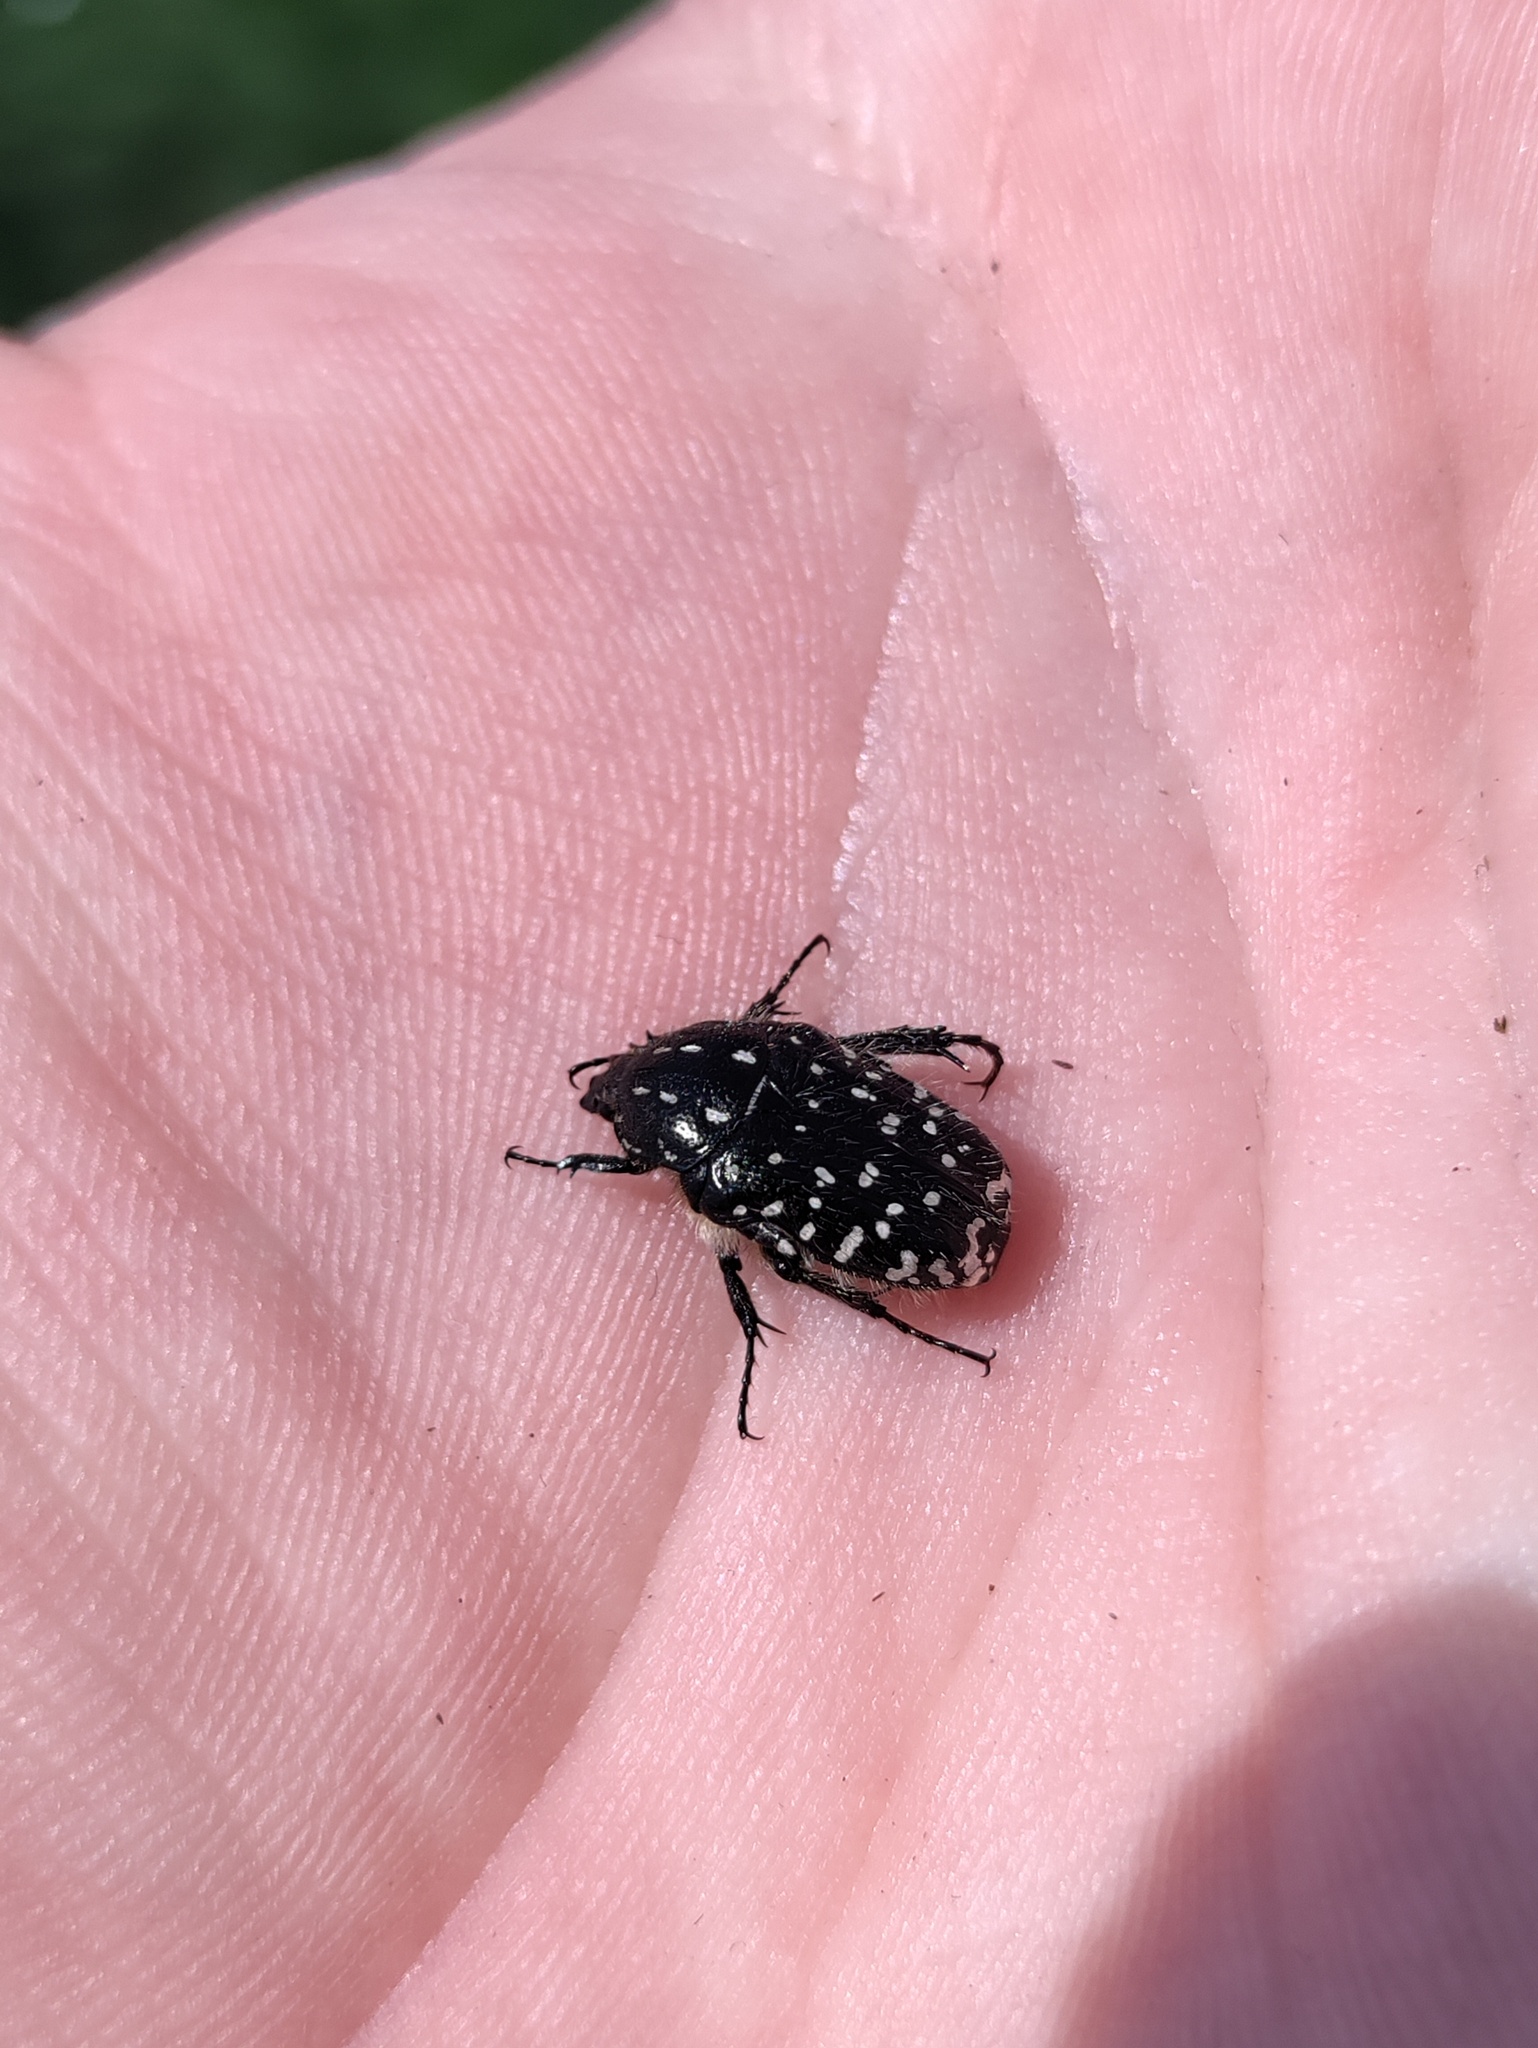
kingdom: Animalia
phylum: Arthropoda
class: Insecta
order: Coleoptera
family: Scarabaeidae
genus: Oxythyrea
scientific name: Oxythyrea funesta
